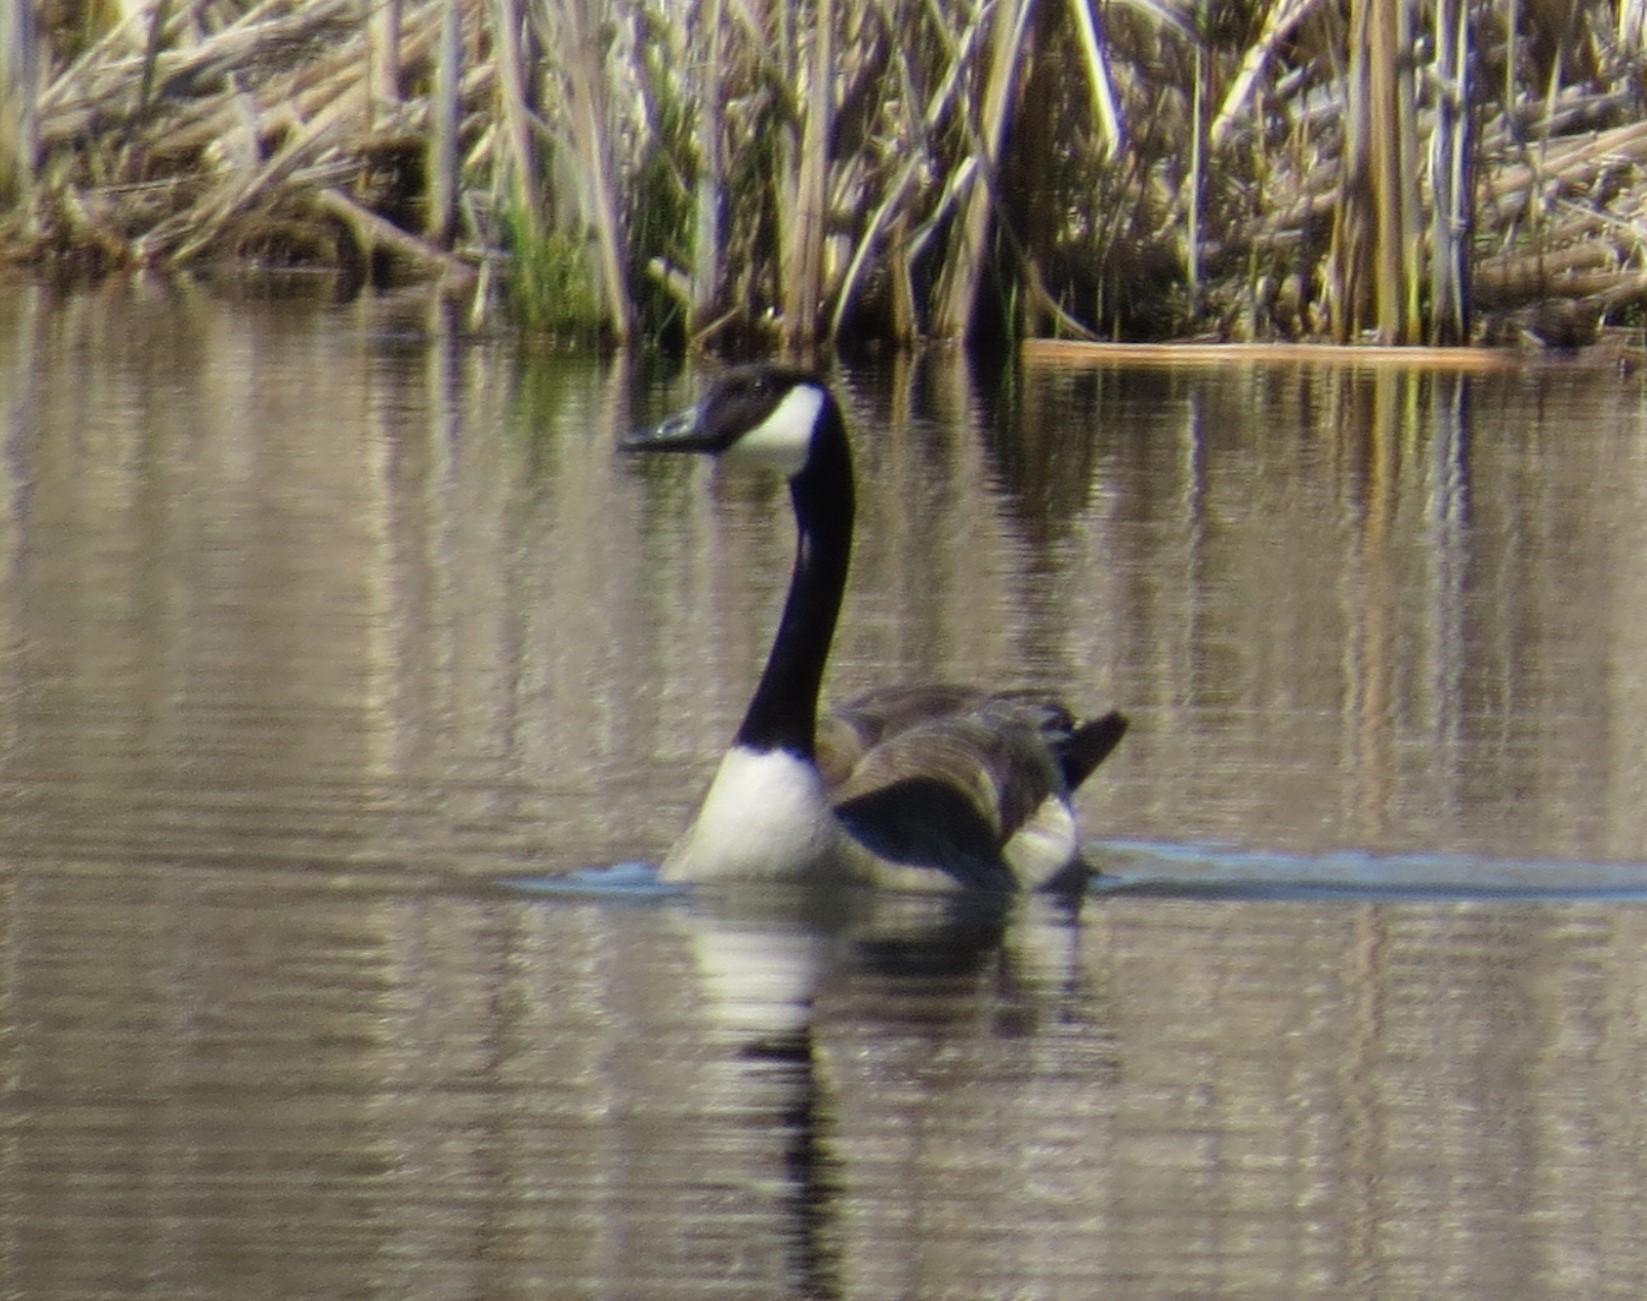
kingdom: Animalia
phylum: Chordata
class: Aves
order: Anseriformes
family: Anatidae
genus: Branta
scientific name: Branta canadensis
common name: Canada goose
